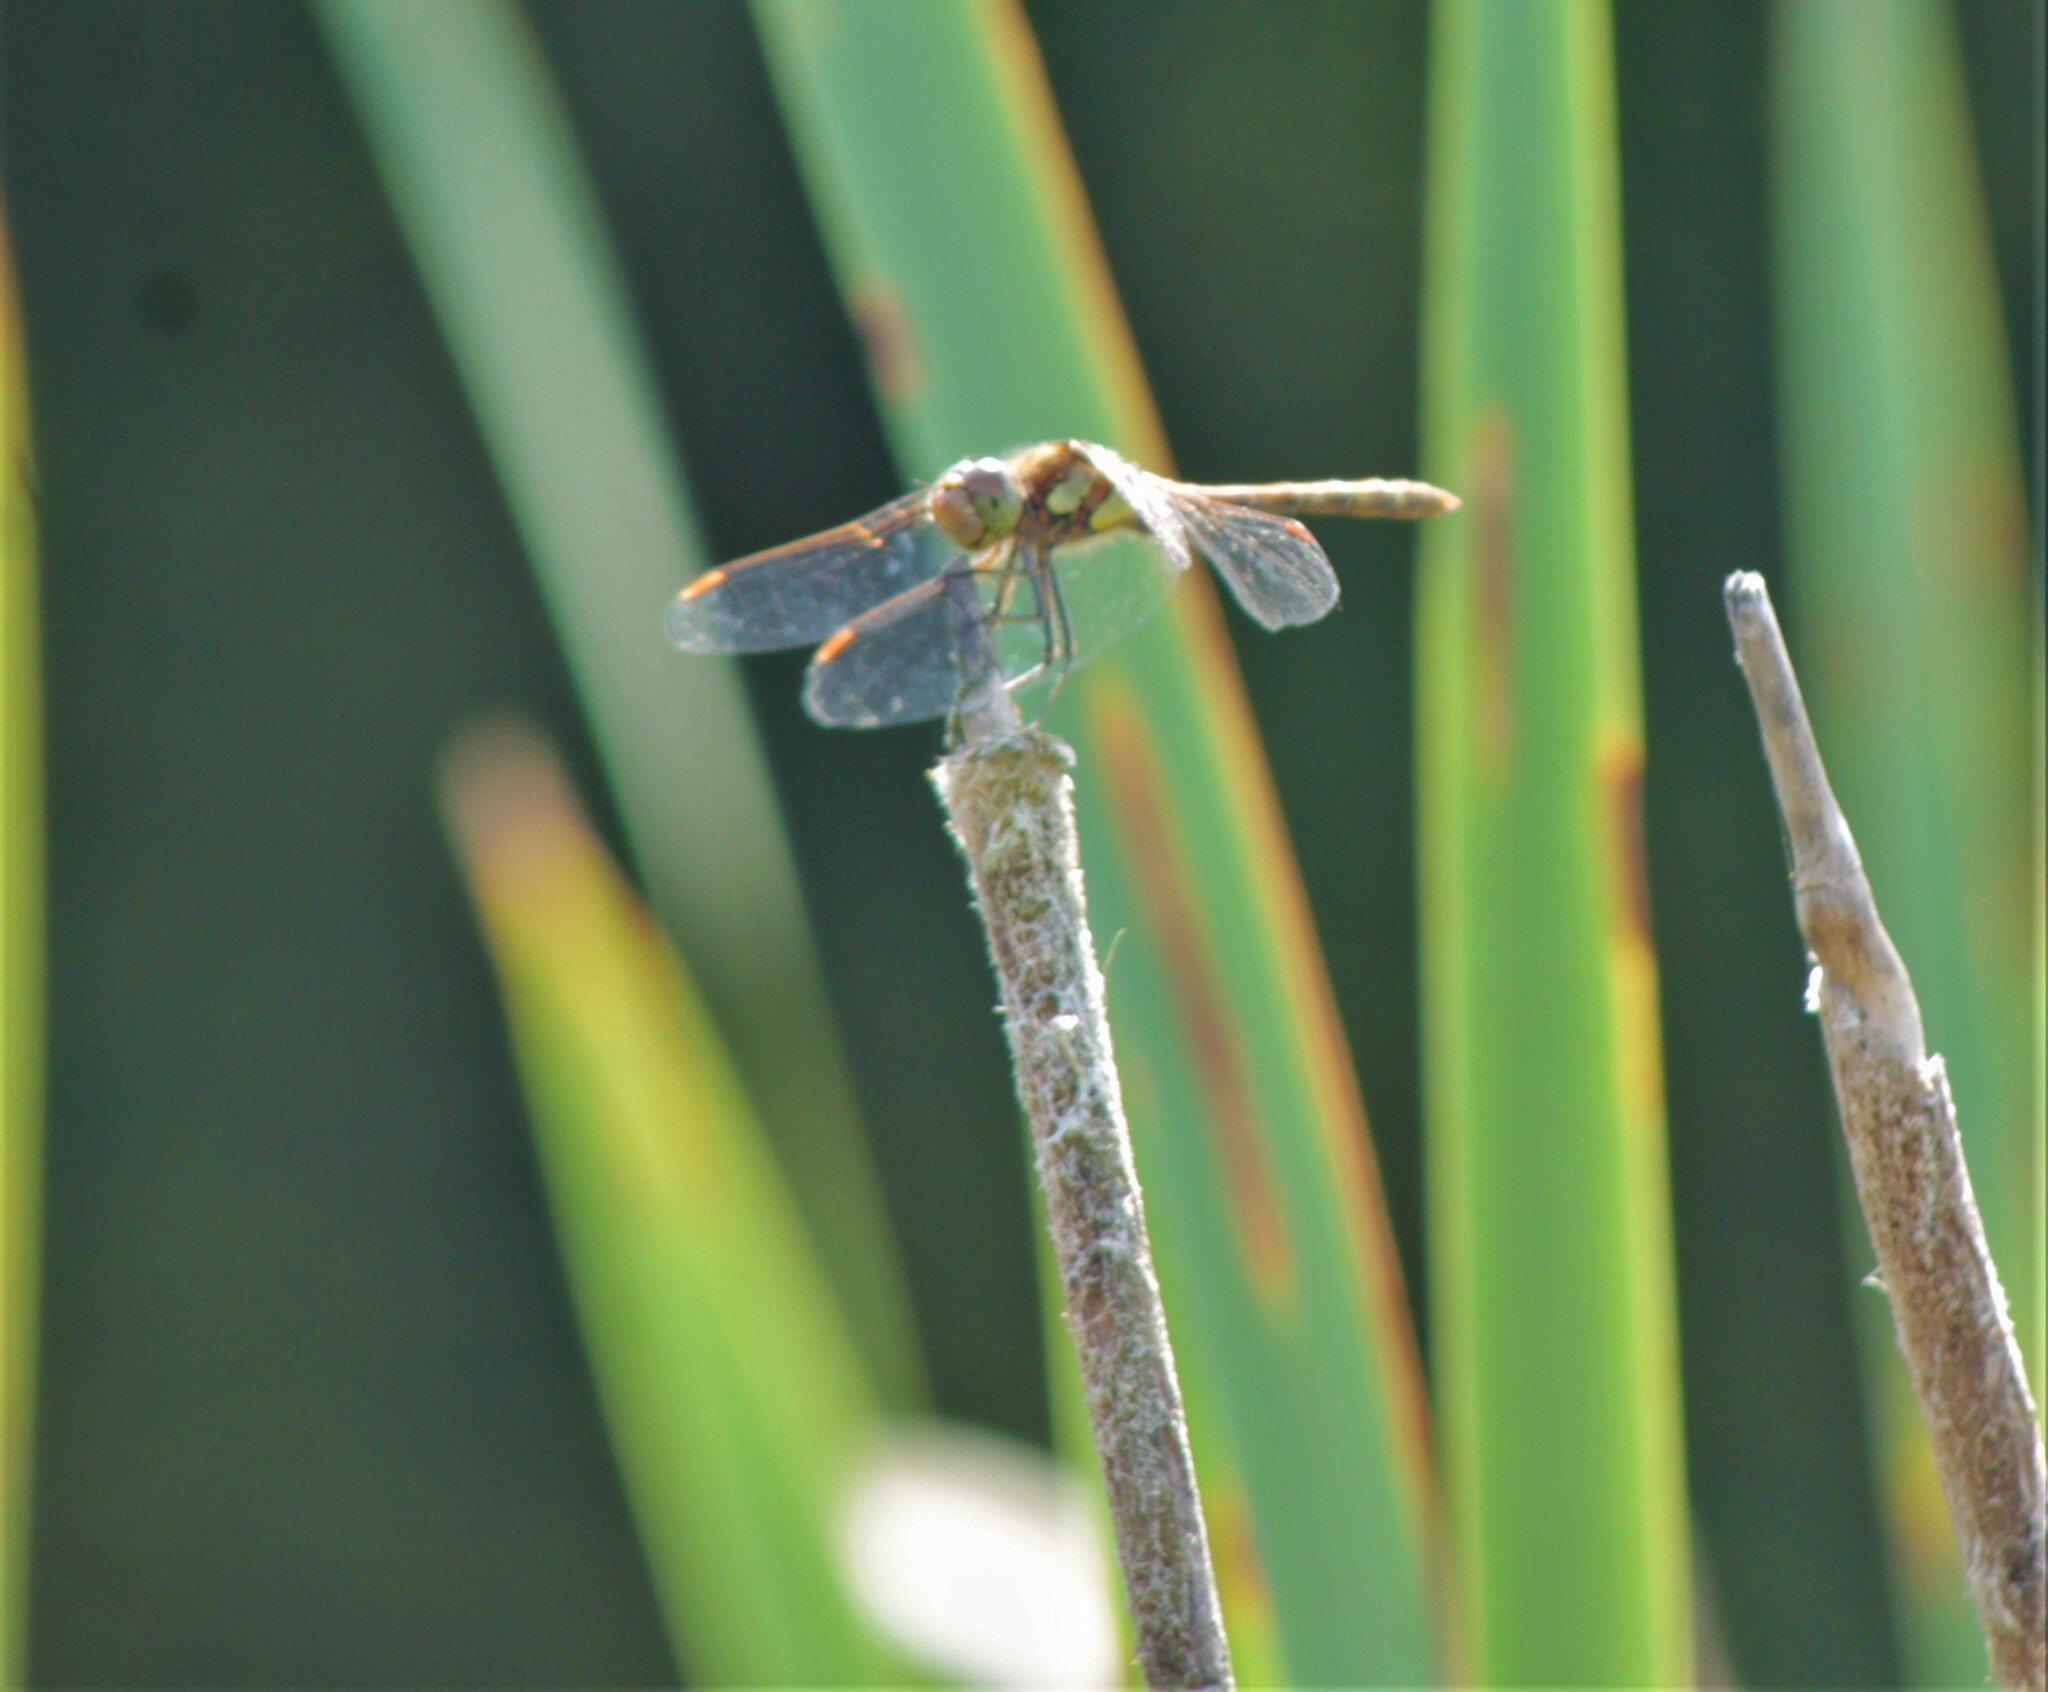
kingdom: Animalia
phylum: Arthropoda
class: Insecta
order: Odonata
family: Libellulidae
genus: Sympetrum
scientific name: Sympetrum striolatum
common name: Common darter
